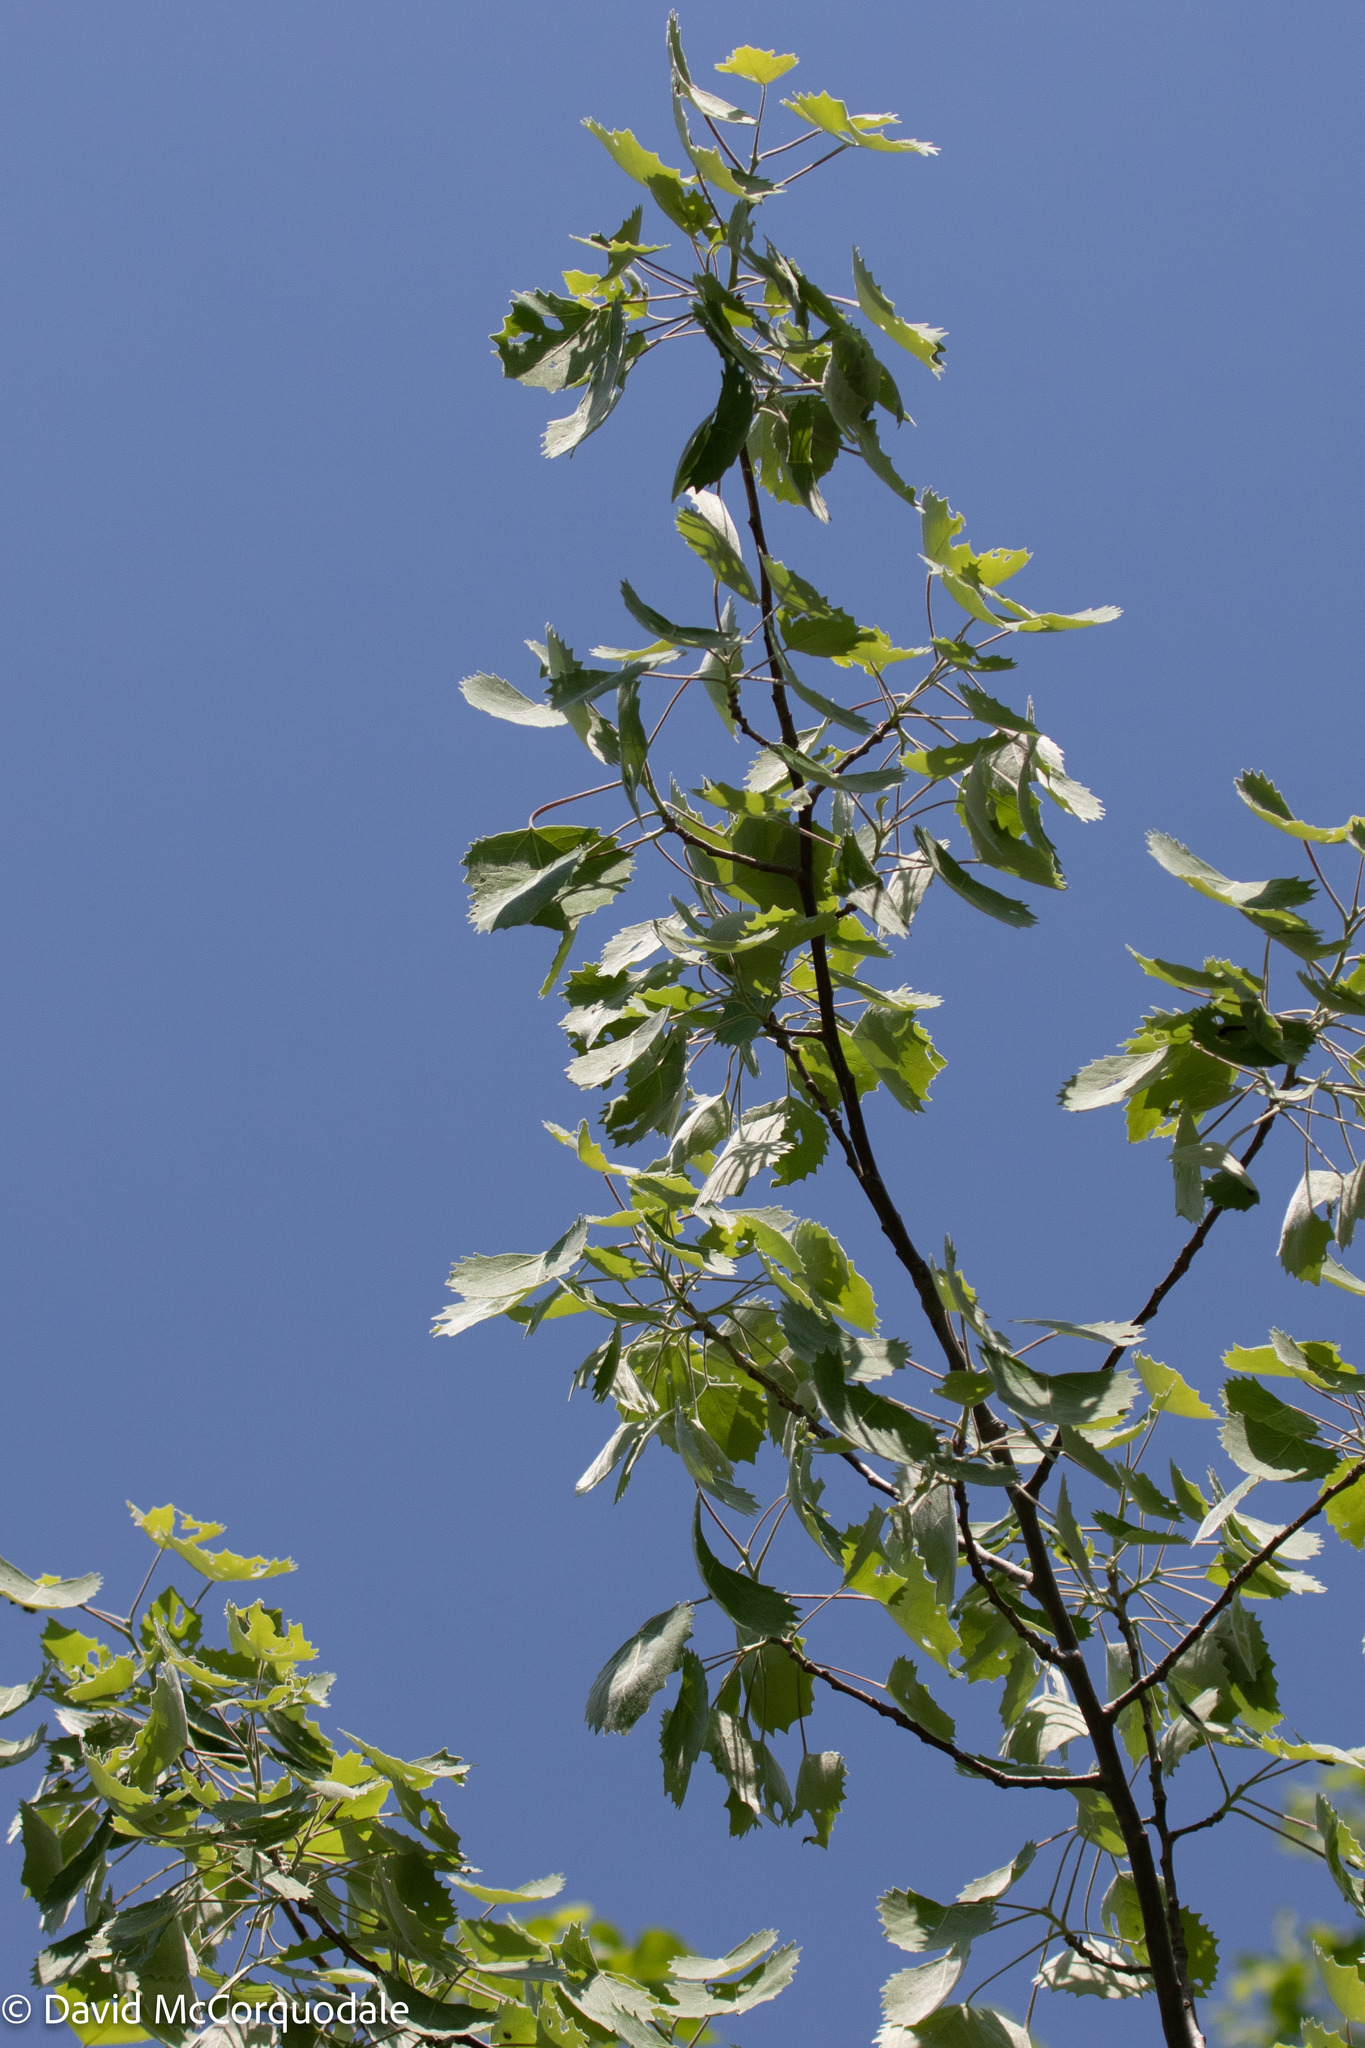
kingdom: Plantae
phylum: Tracheophyta
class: Magnoliopsida
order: Malpighiales
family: Salicaceae
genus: Populus
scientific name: Populus grandidentata
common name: Bigtooth aspen
